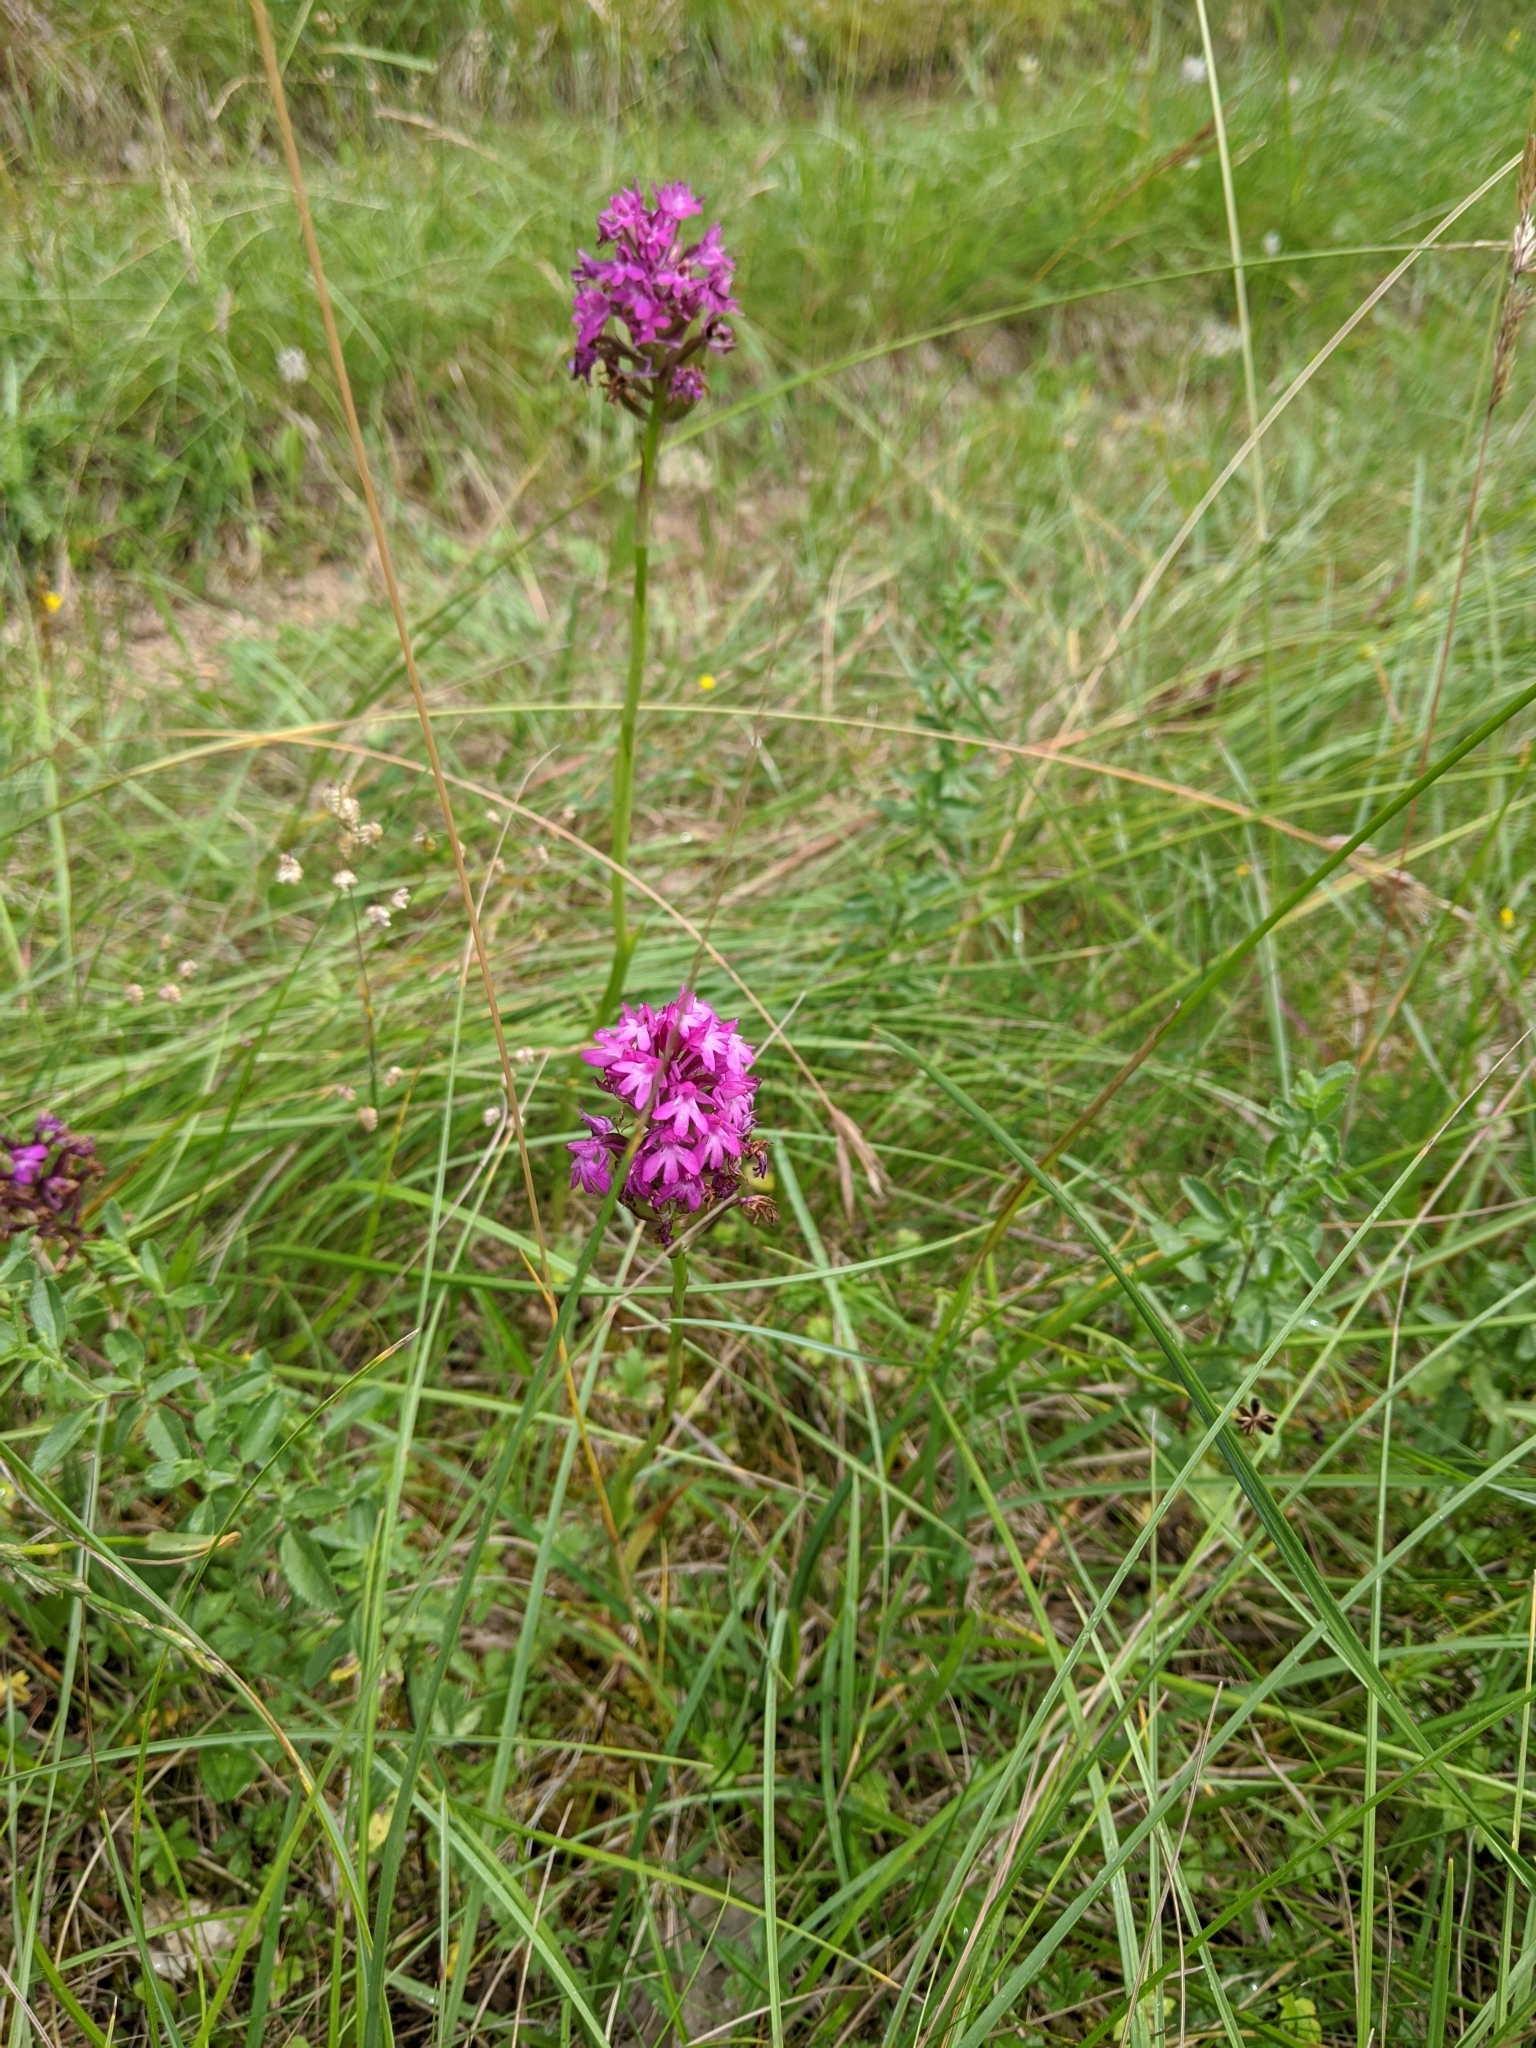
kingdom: Plantae
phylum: Tracheophyta
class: Liliopsida
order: Asparagales
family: Orchidaceae
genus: Anacamptis
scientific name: Anacamptis pyramidalis
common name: Pyramidal orchid
